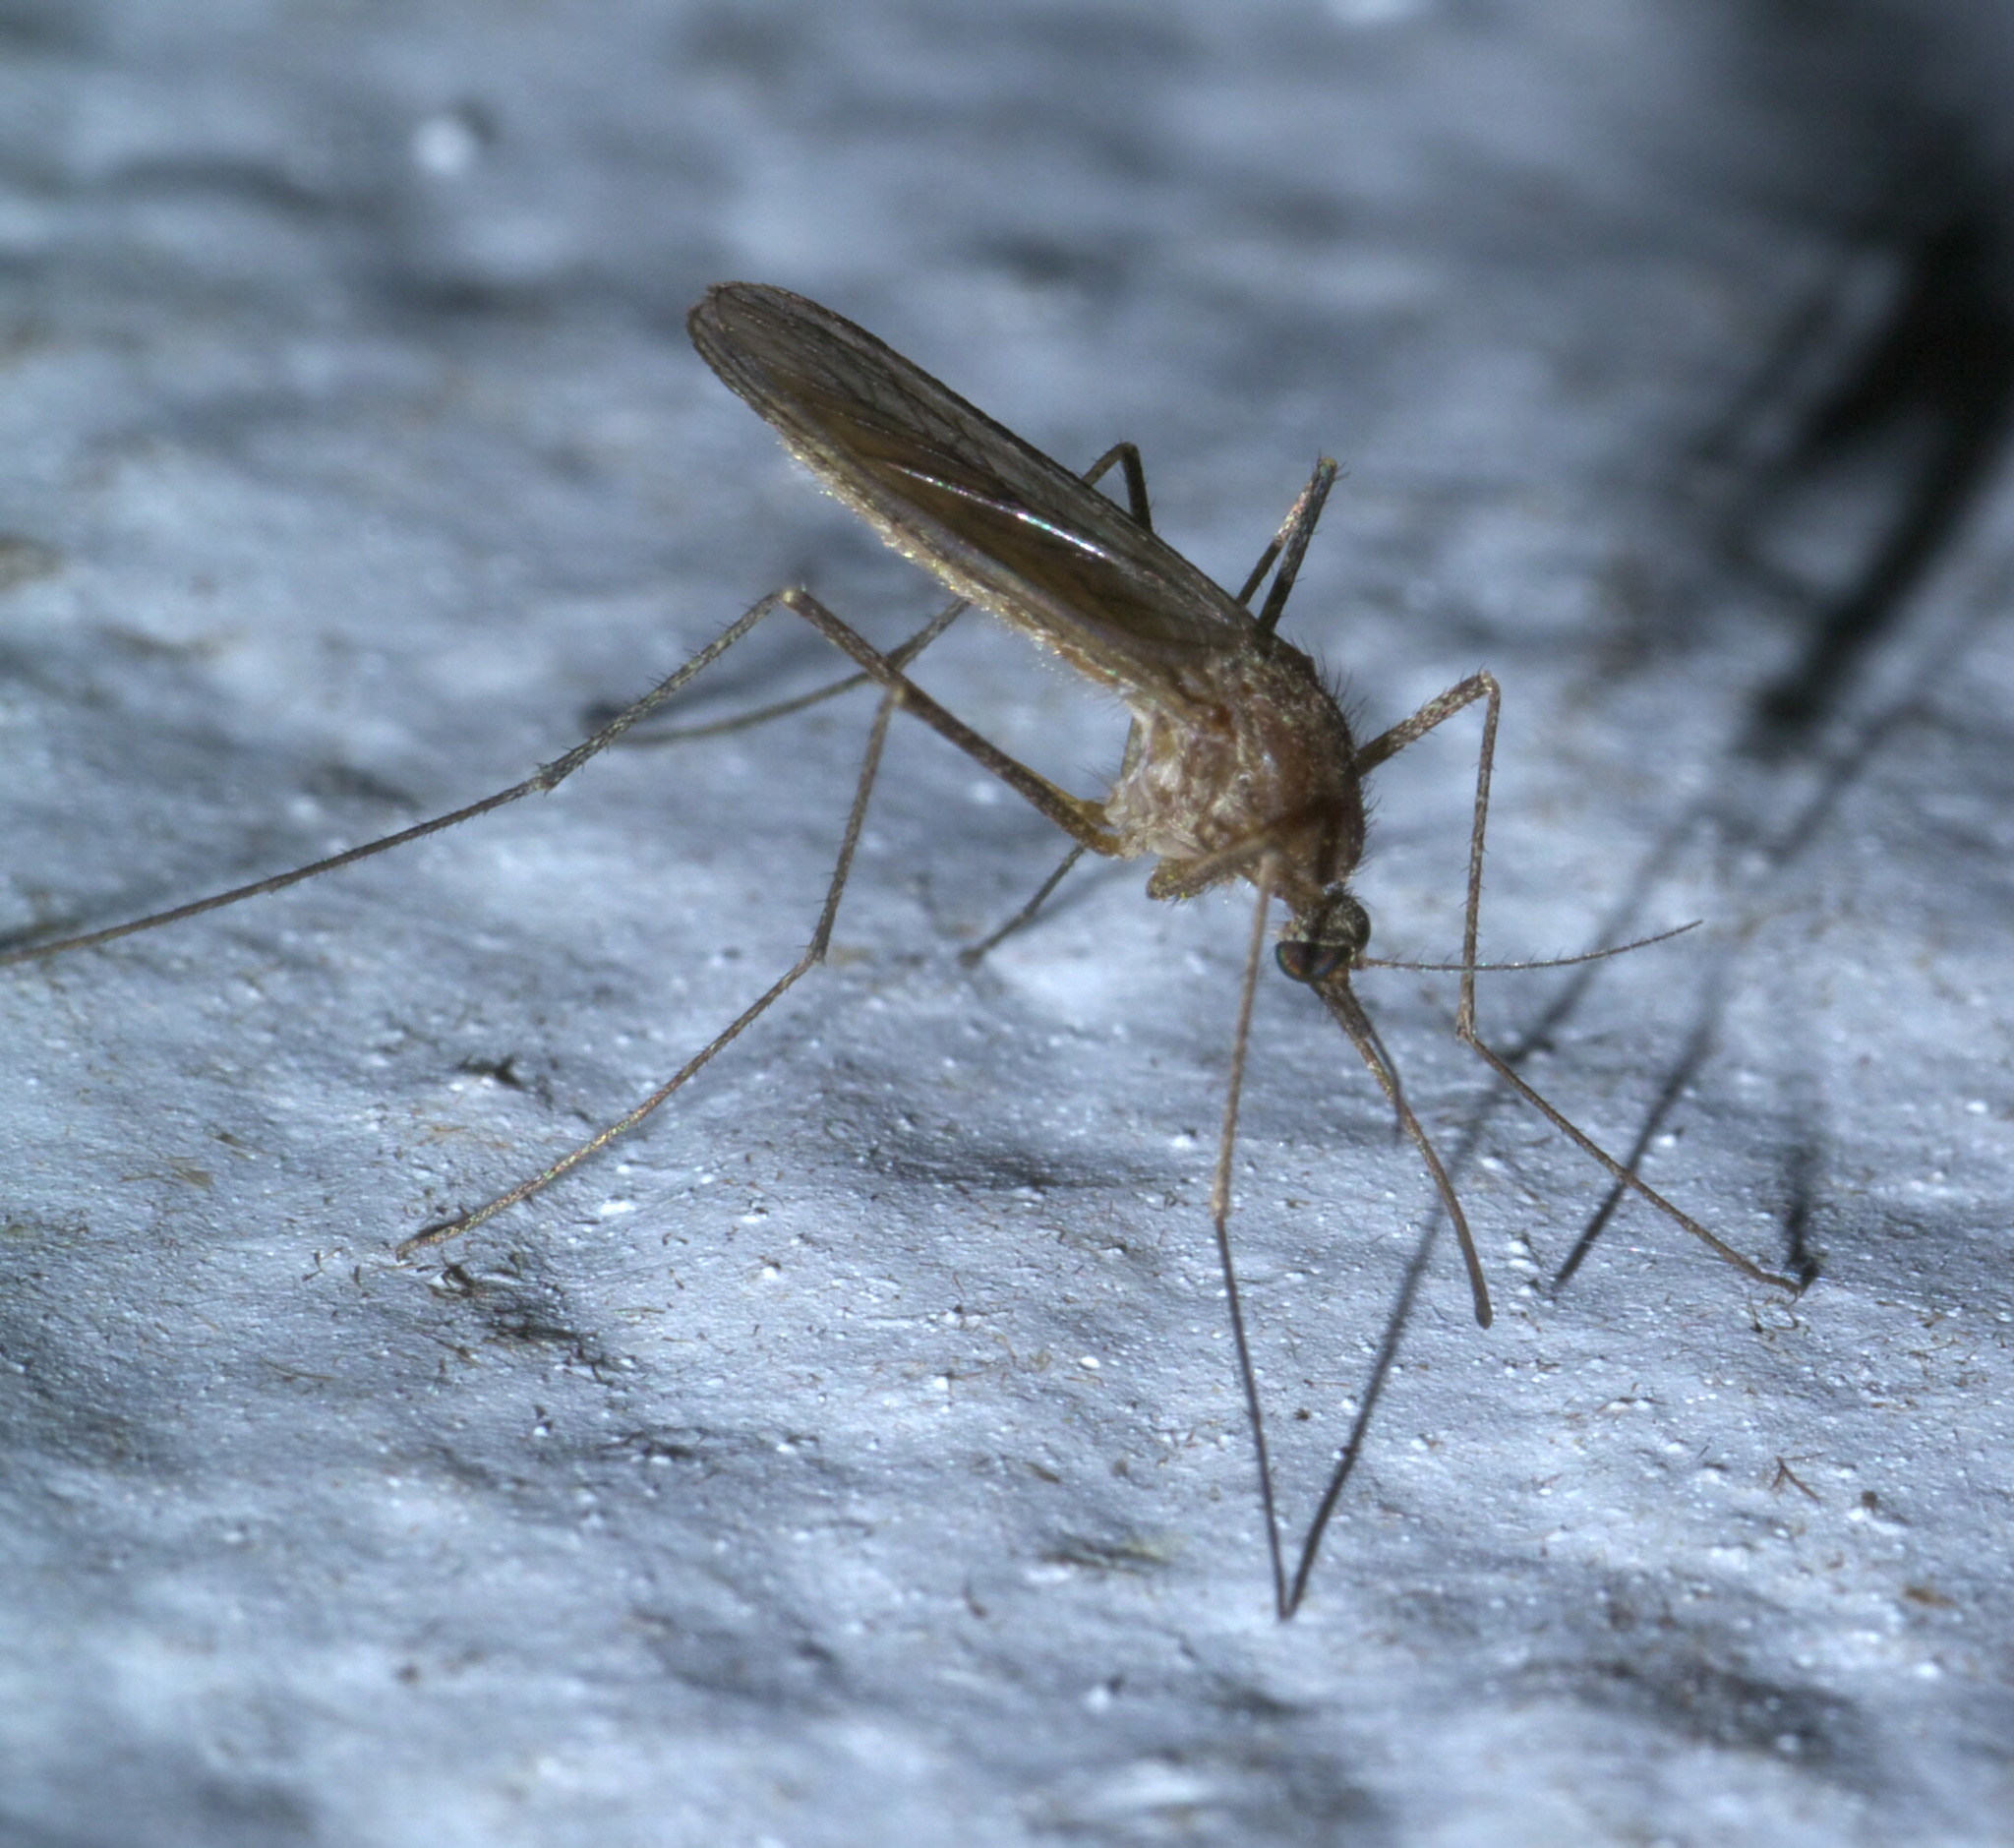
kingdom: Animalia
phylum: Arthropoda
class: Insecta
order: Diptera
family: Culicidae
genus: Culiseta
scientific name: Culiseta inornata
